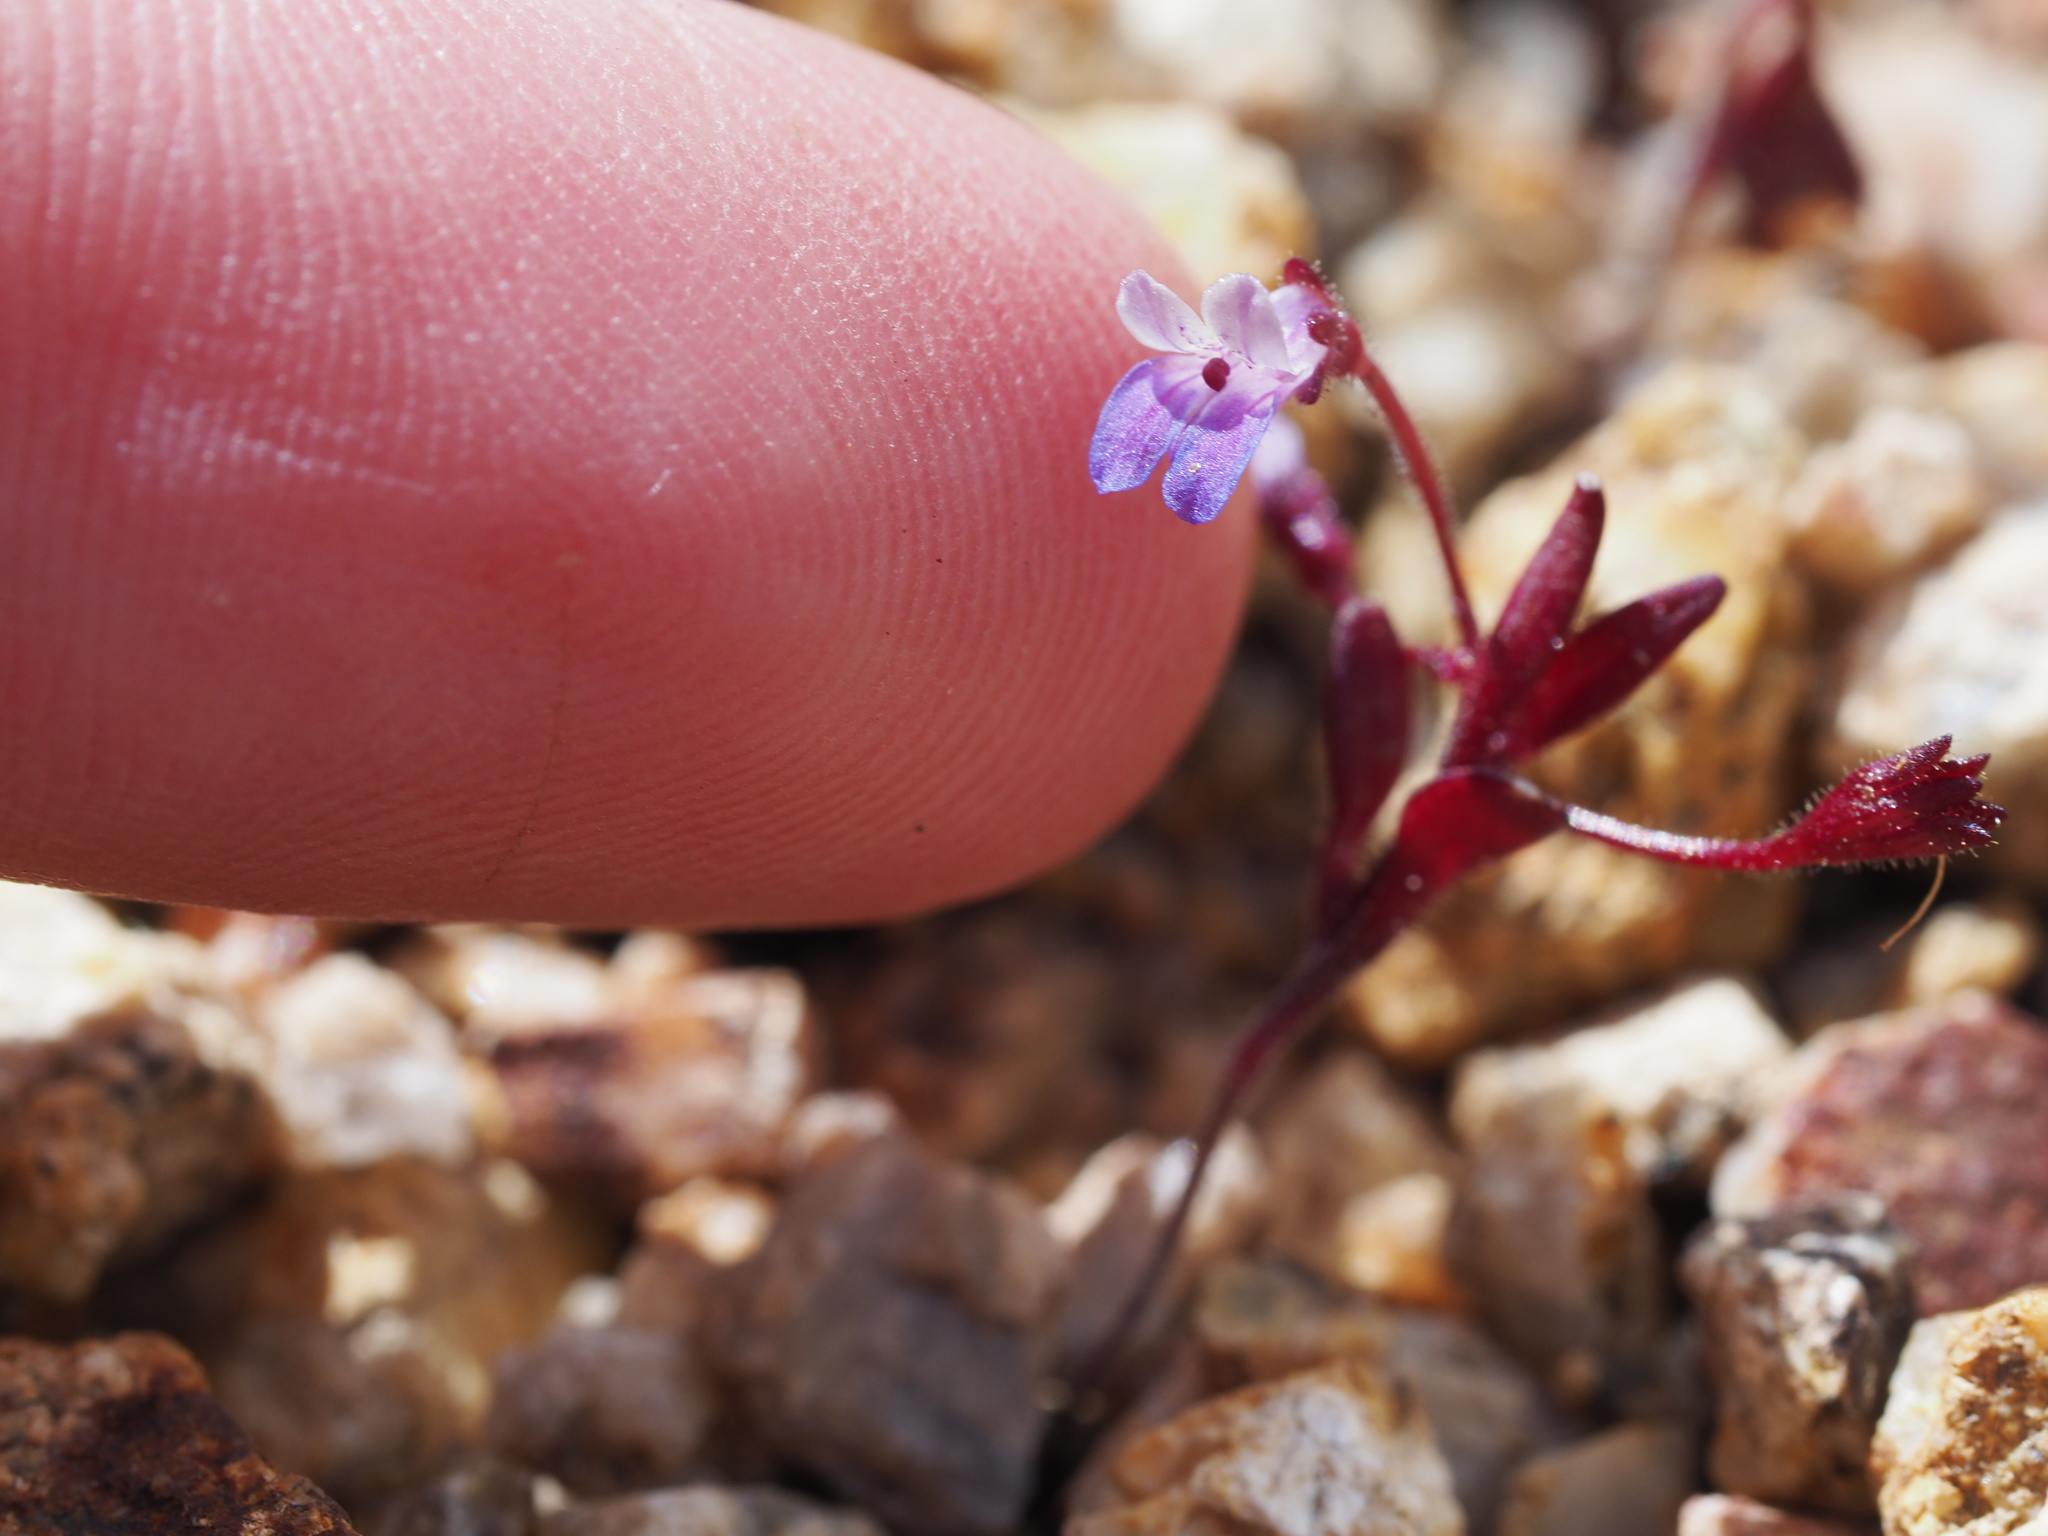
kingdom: Plantae
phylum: Tracheophyta
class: Magnoliopsida
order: Lamiales
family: Plantaginaceae
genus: Collinsia
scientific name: Collinsia parviflora
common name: Blue-lips
